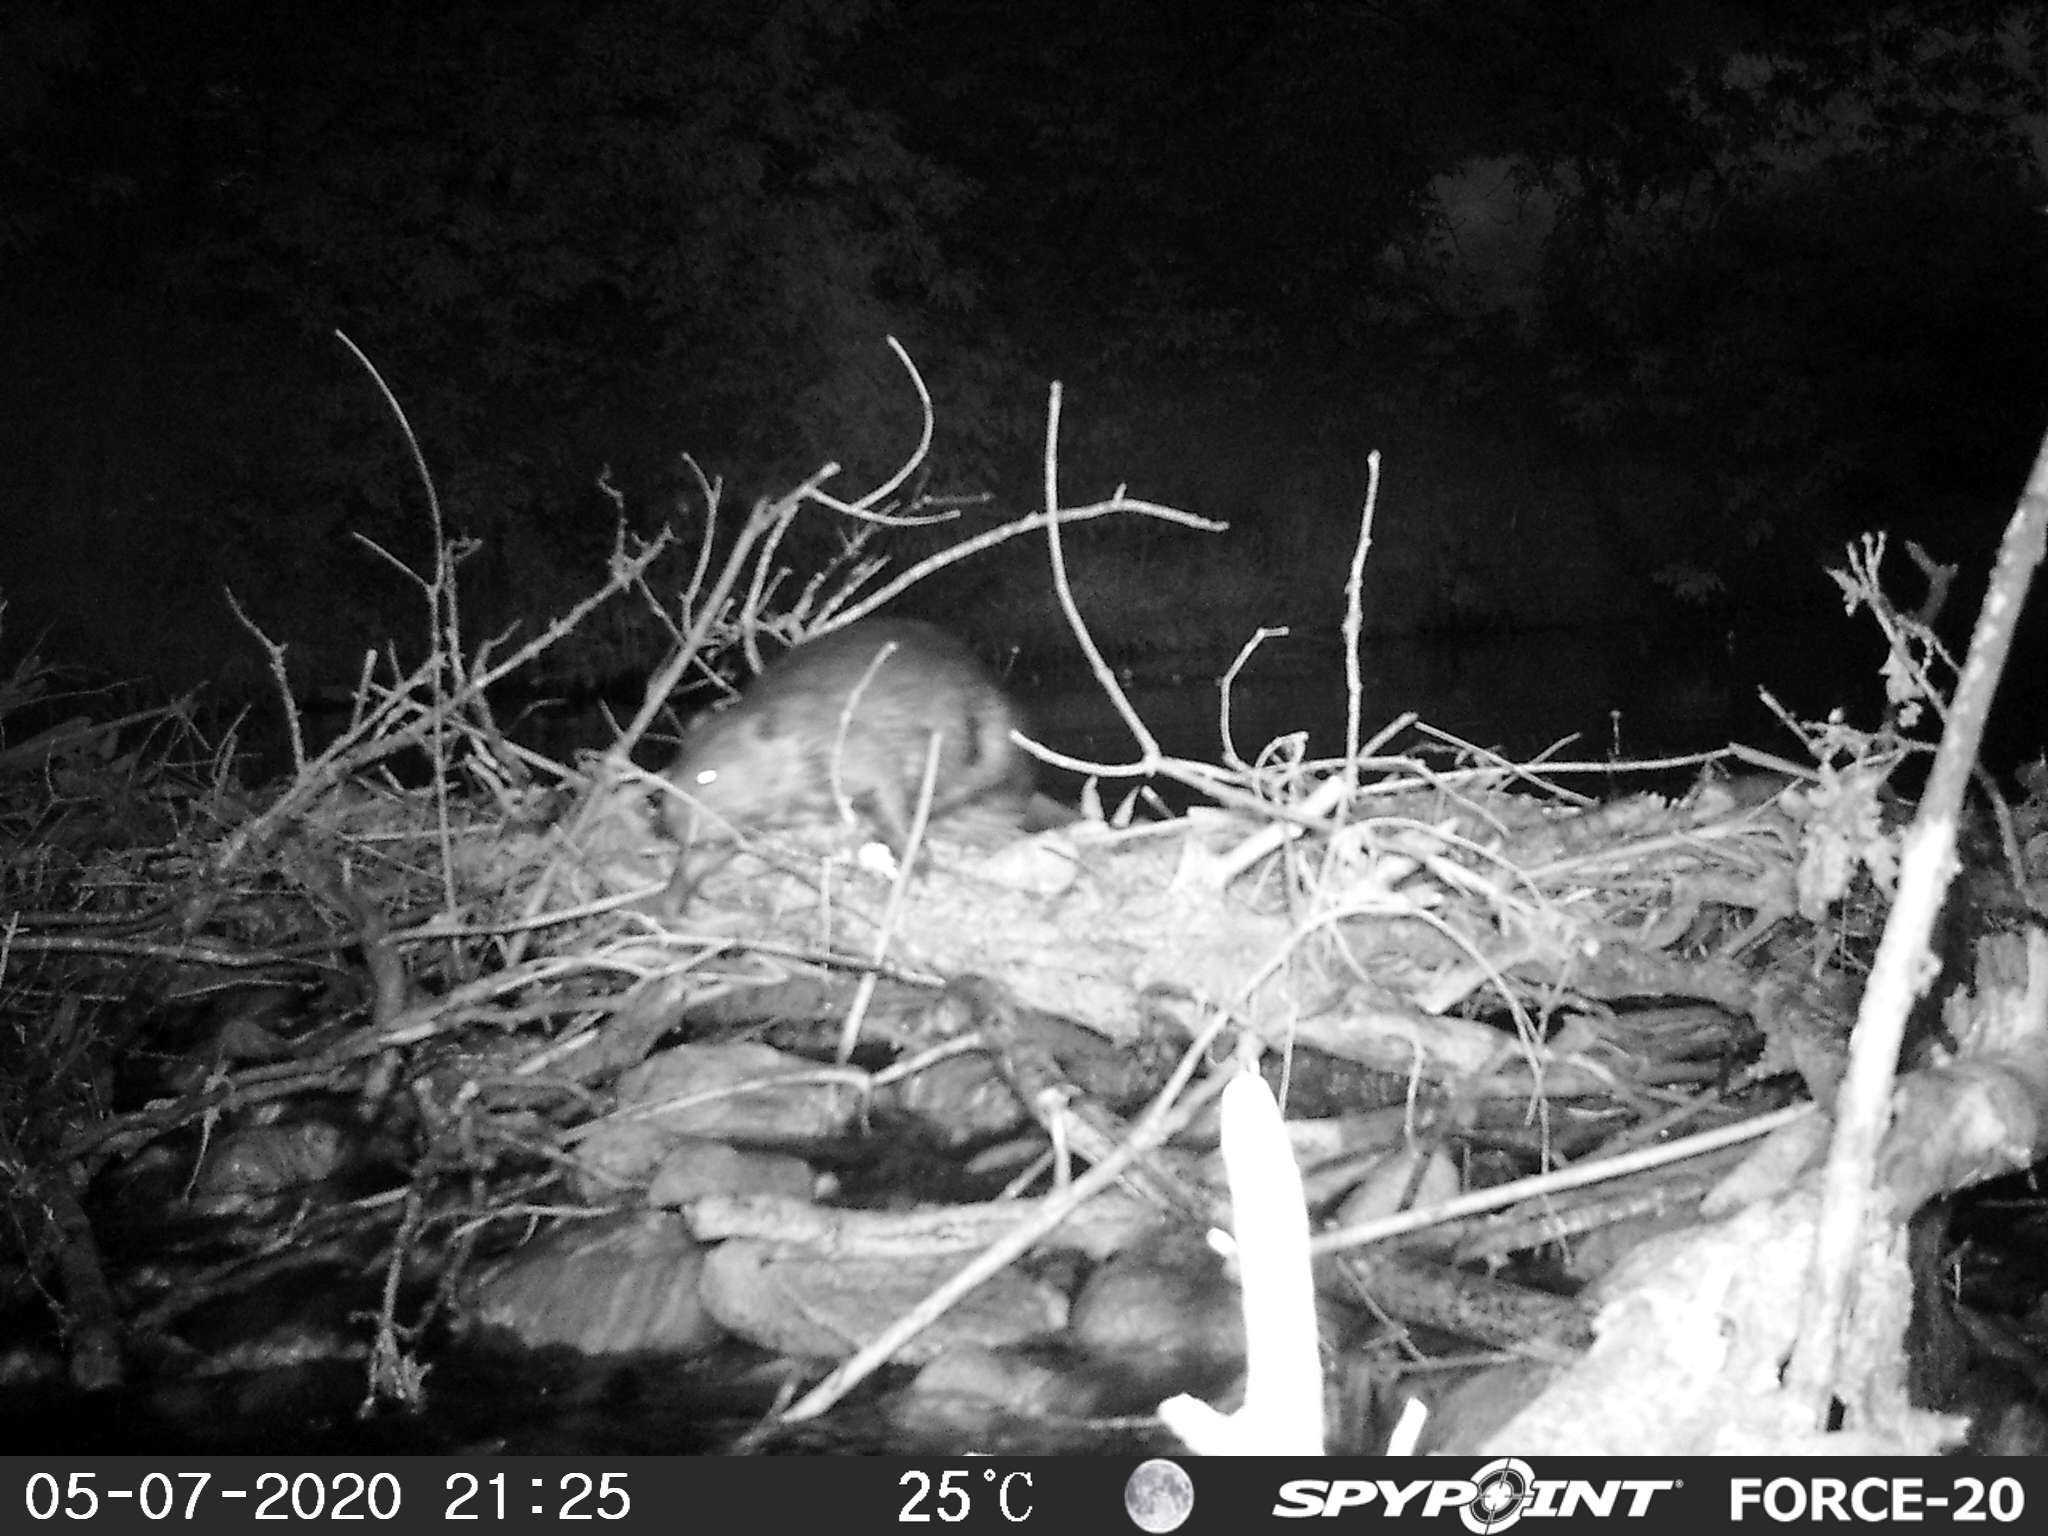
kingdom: Animalia
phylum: Chordata
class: Mammalia
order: Rodentia
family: Cricetidae
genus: Ondatra
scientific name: Ondatra zibethicus
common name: Muskrat
